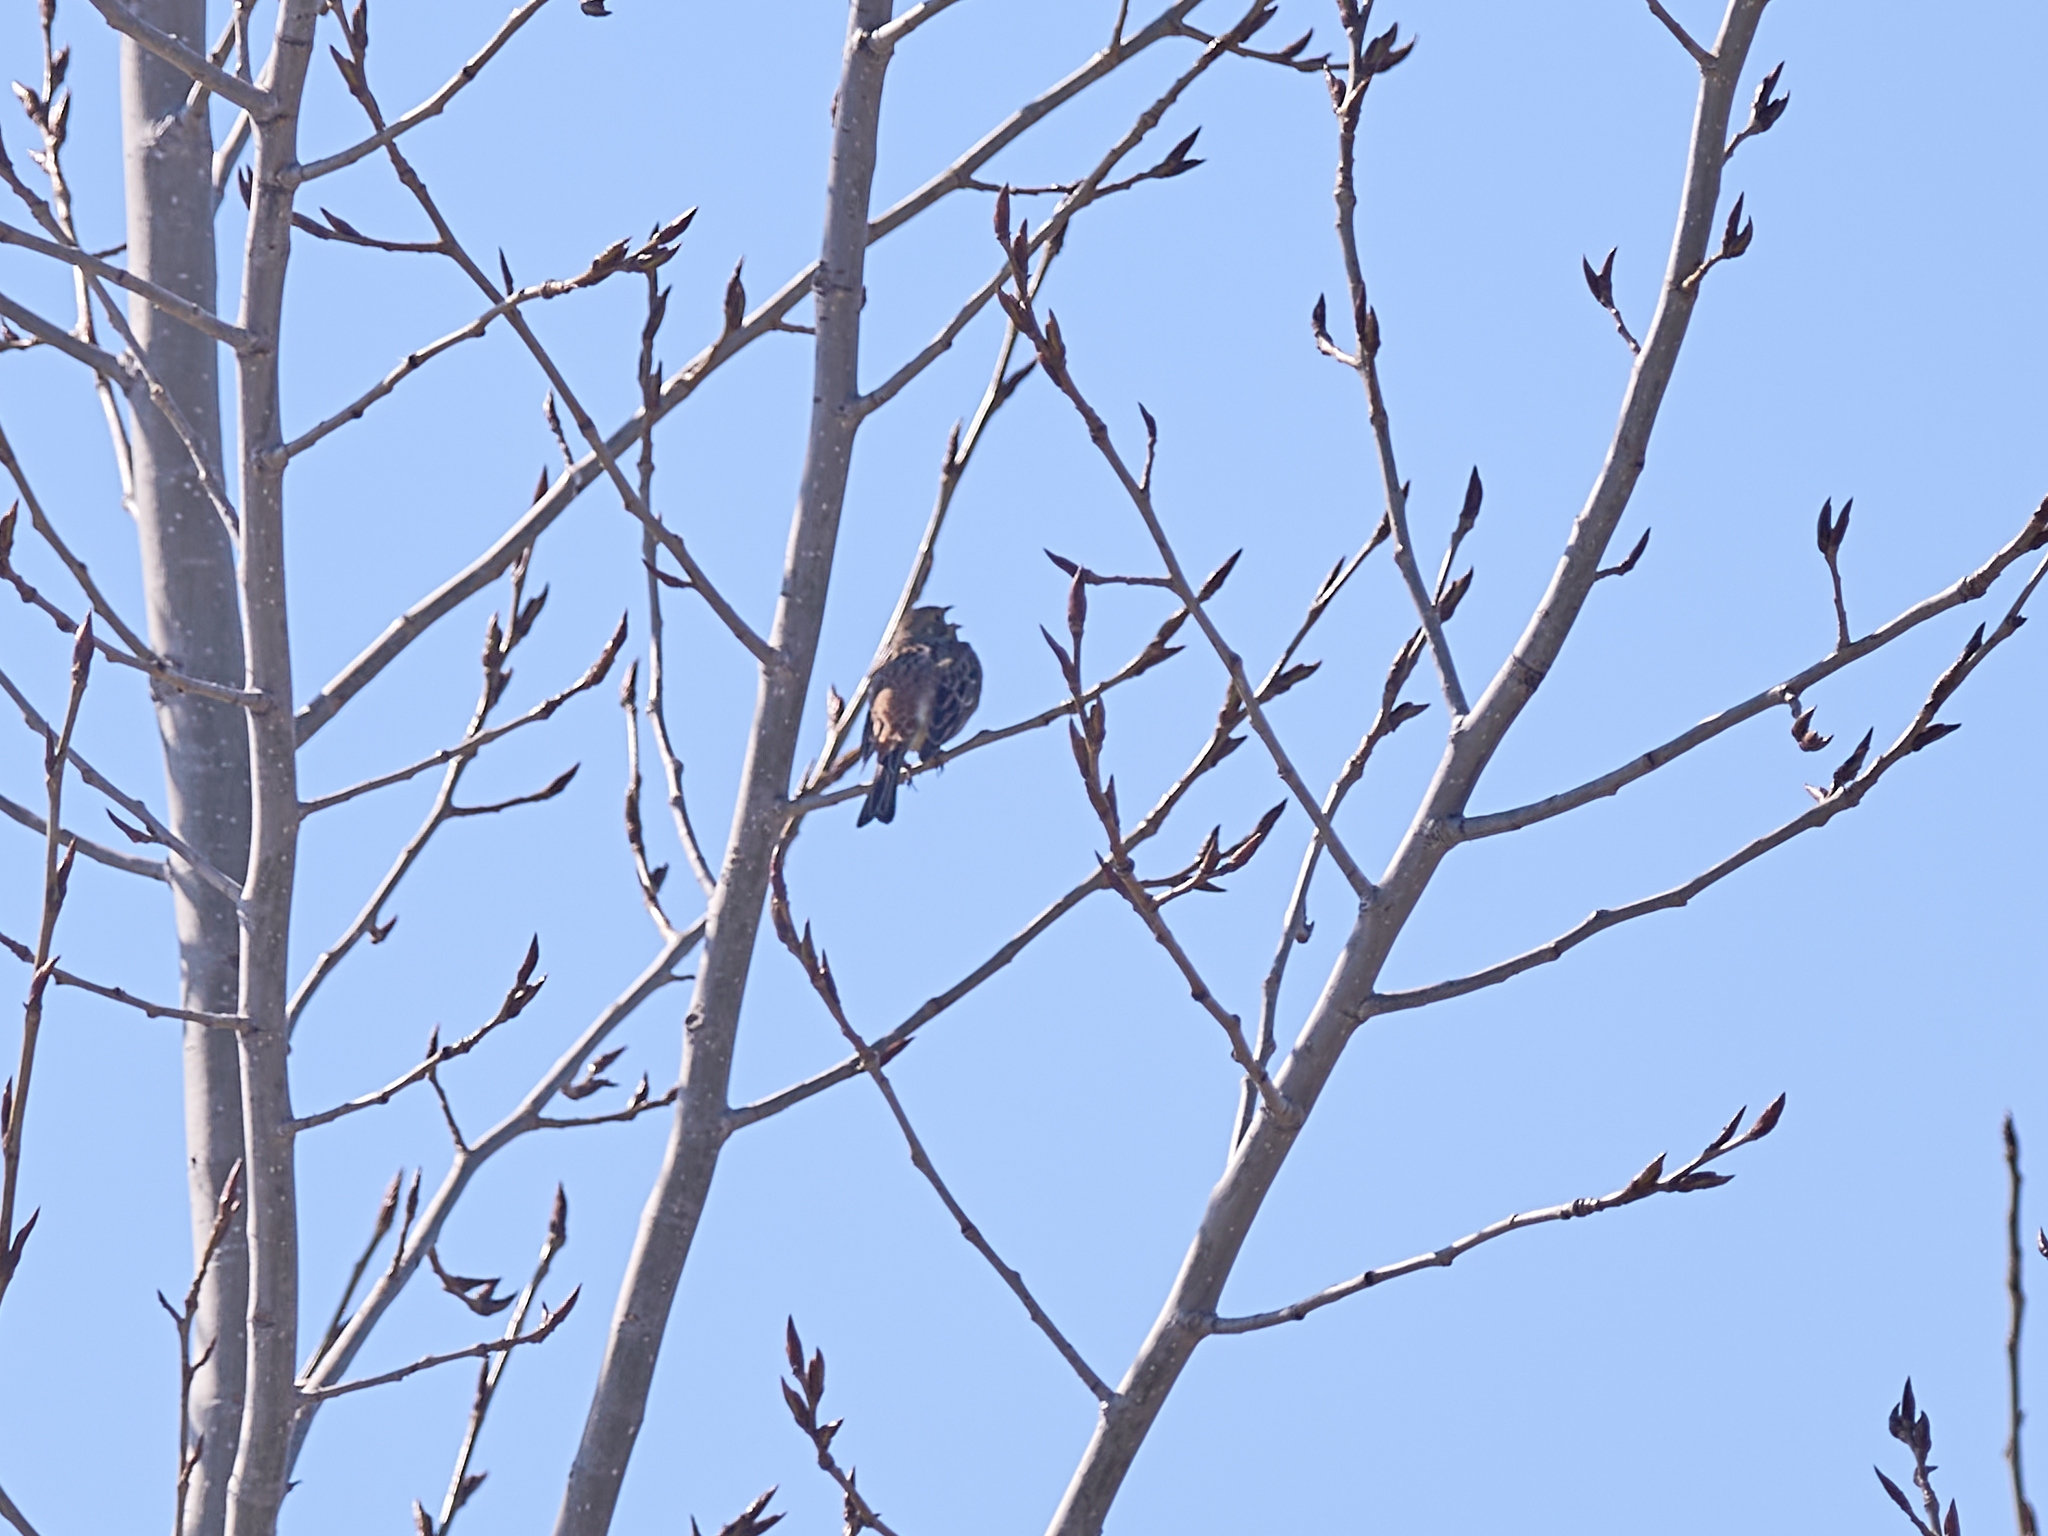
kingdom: Animalia
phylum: Chordata
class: Aves
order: Passeriformes
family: Emberizidae
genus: Emberiza
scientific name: Emberiza citrinella
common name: Yellowhammer
